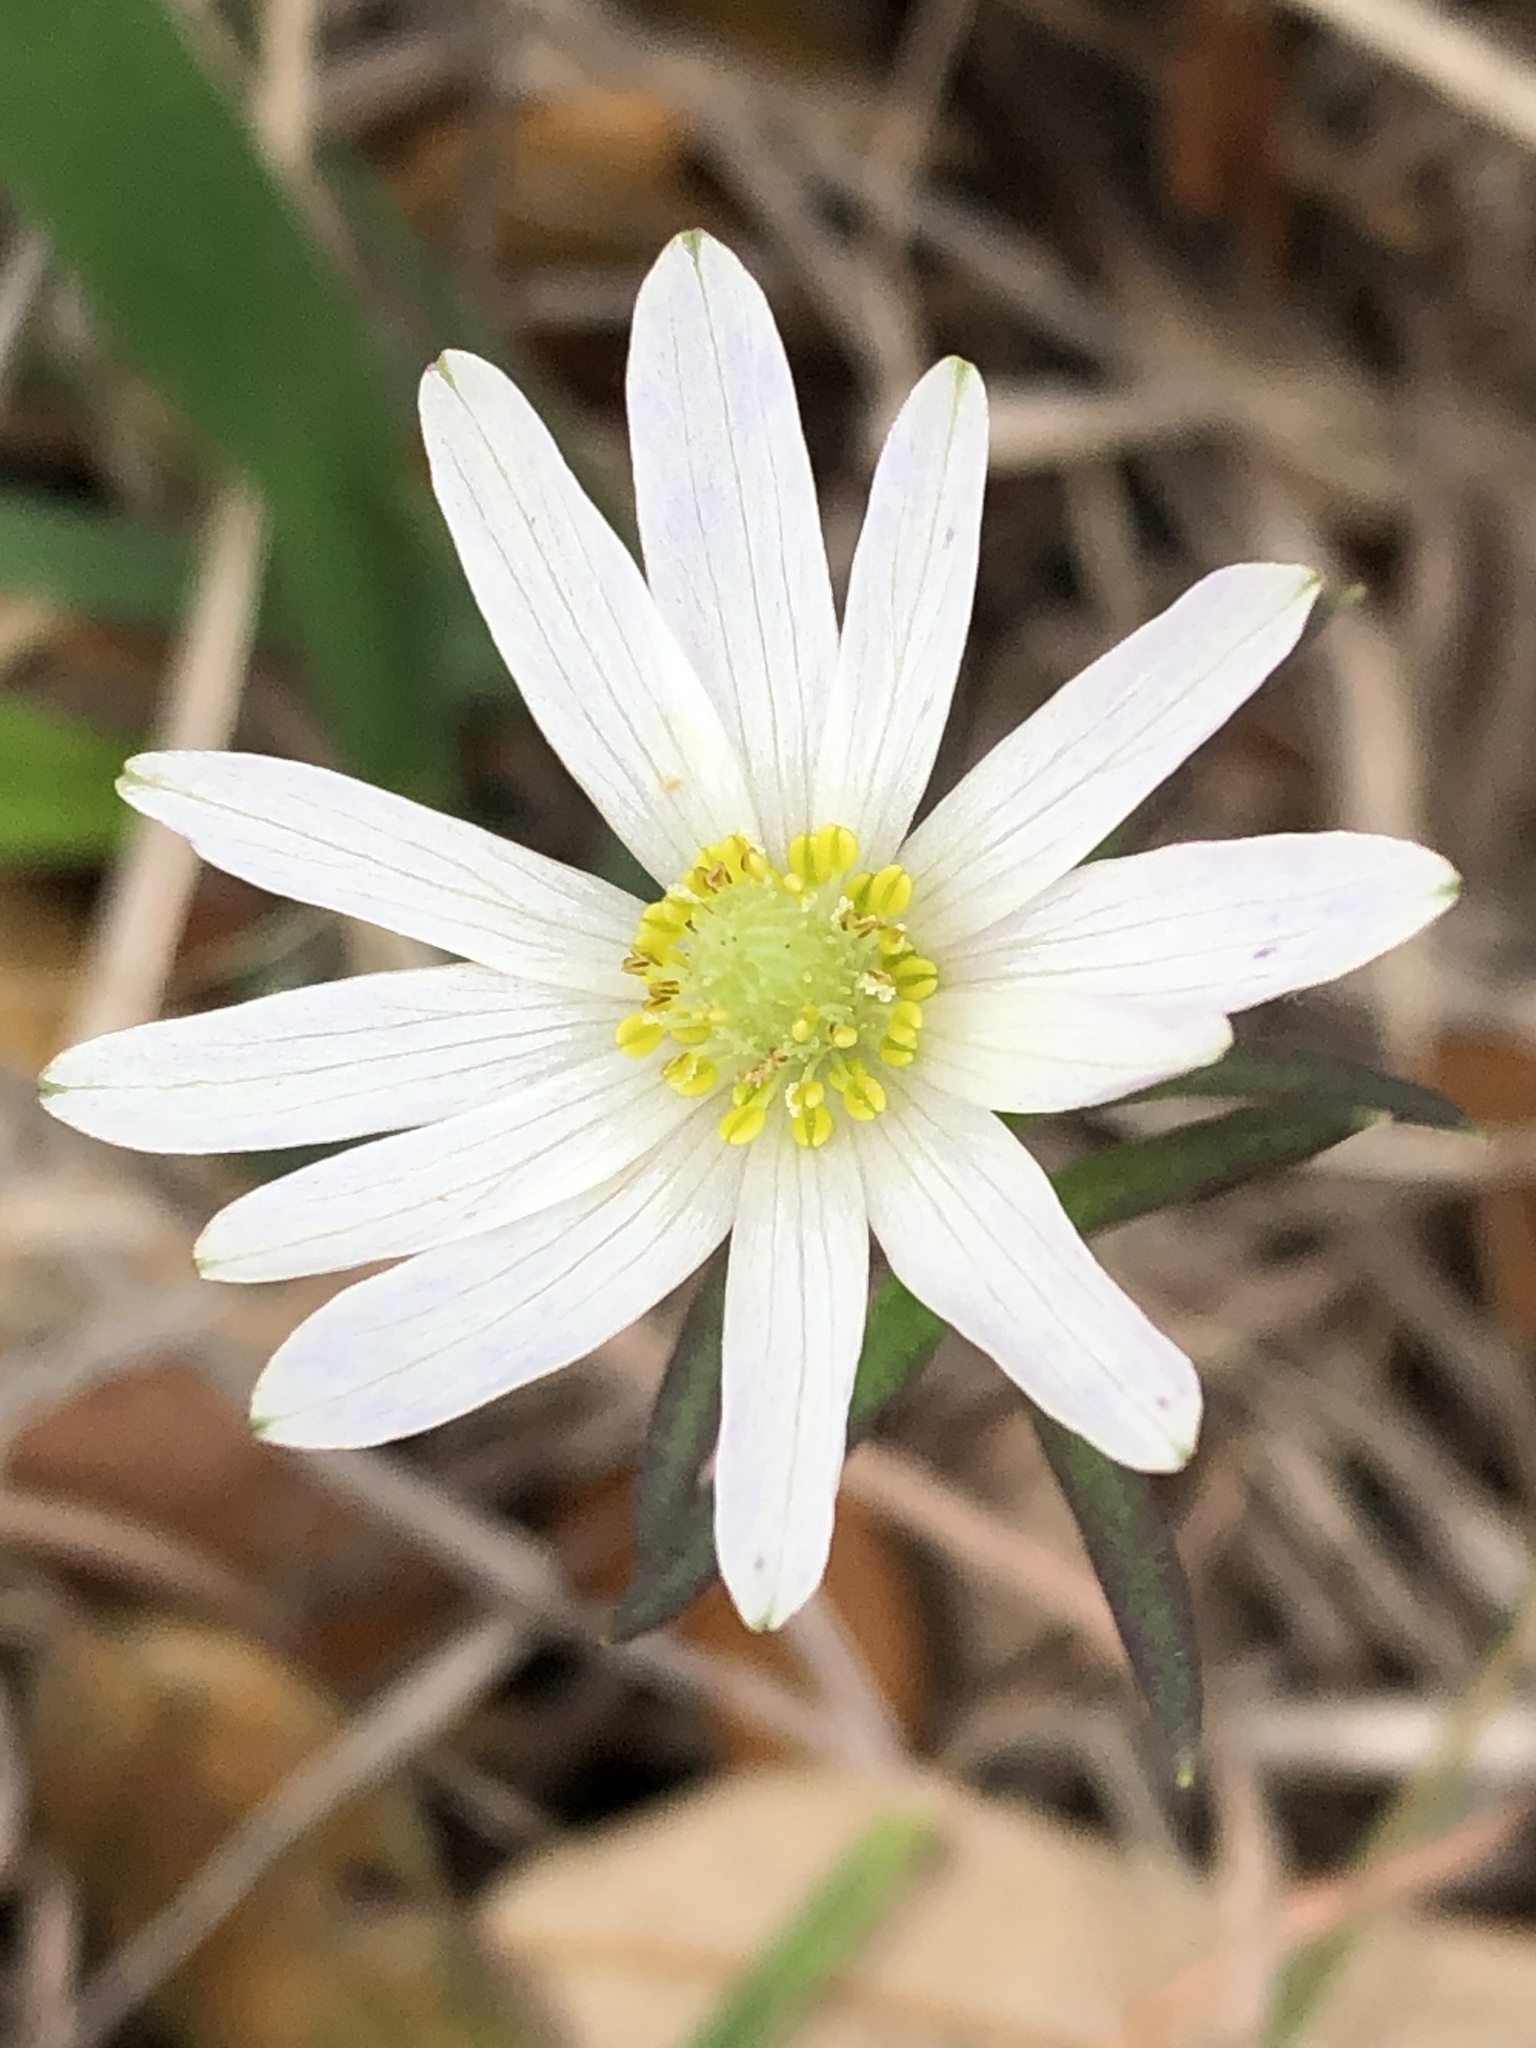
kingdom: Plantae
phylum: Tracheophyta
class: Magnoliopsida
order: Ranunculales
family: Ranunculaceae
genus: Anemone
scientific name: Anemone berlandieri
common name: Ten-petal anemone
